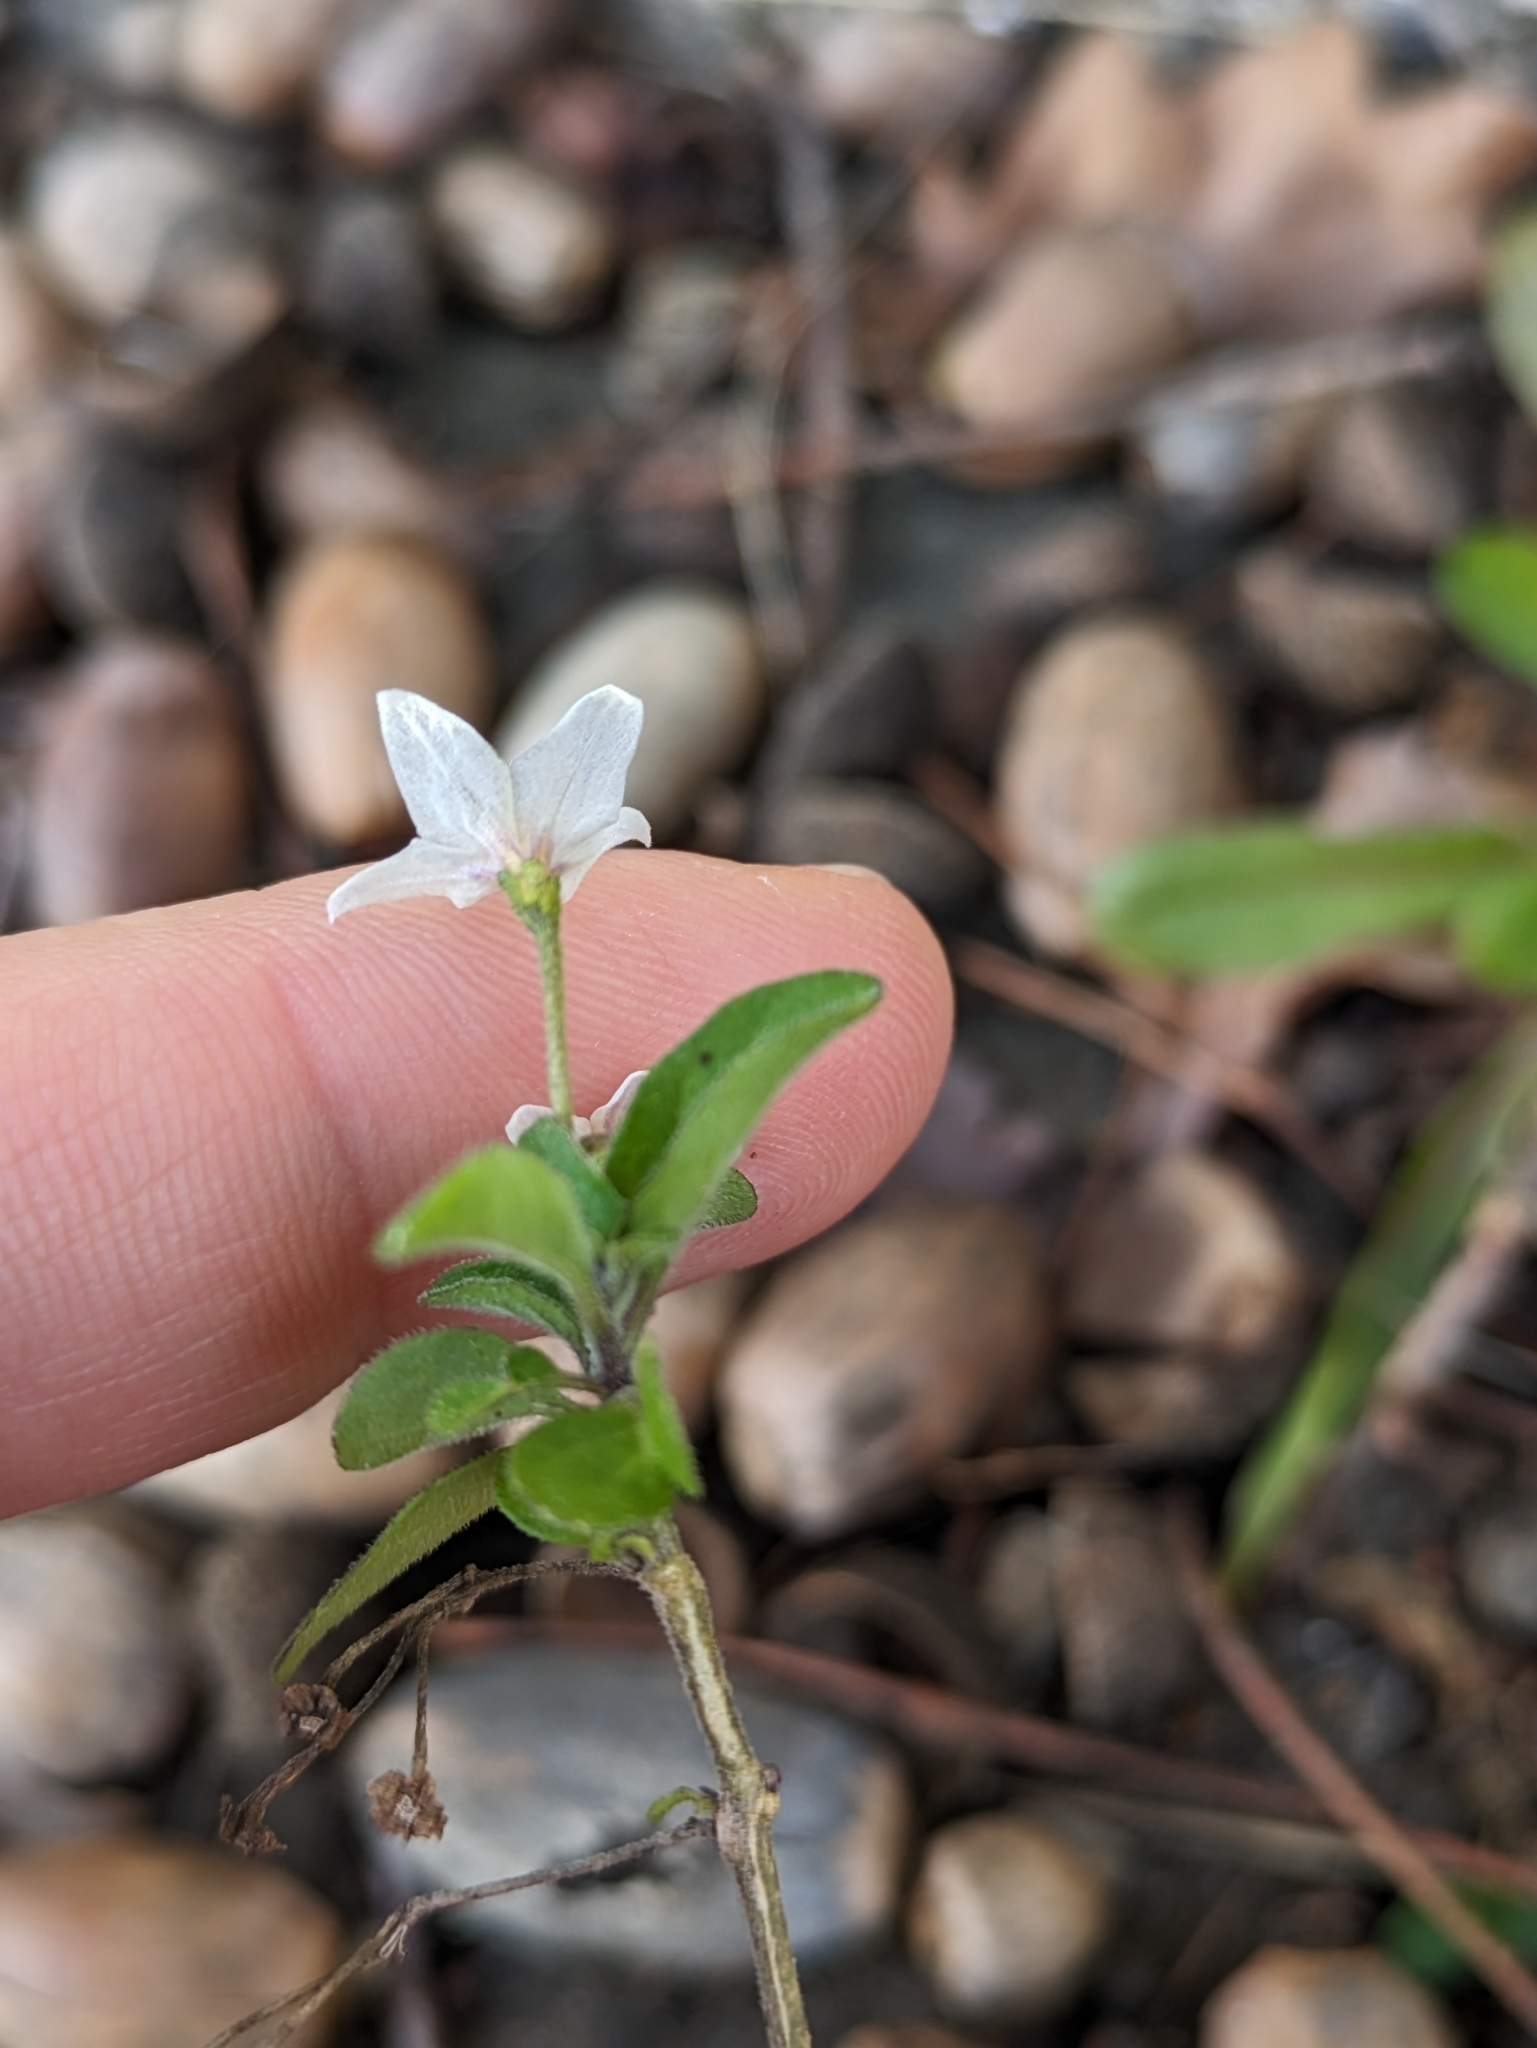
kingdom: Plantae
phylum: Tracheophyta
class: Magnoliopsida
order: Solanales
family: Solanaceae
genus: Solanum
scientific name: Solanum chenopodioides
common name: Tall nightshade
